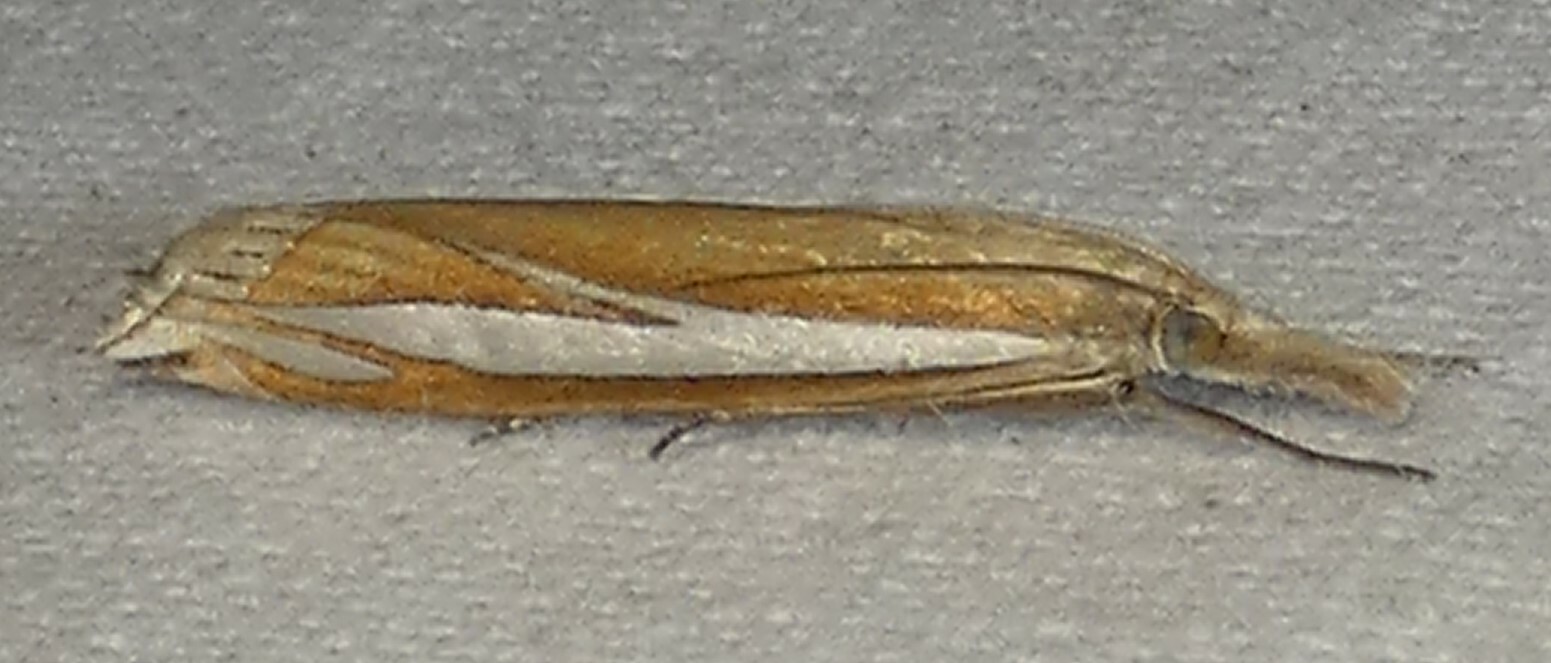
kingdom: Animalia
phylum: Arthropoda
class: Insecta
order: Lepidoptera
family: Crambidae
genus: Crambus
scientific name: Crambus satrapellus
